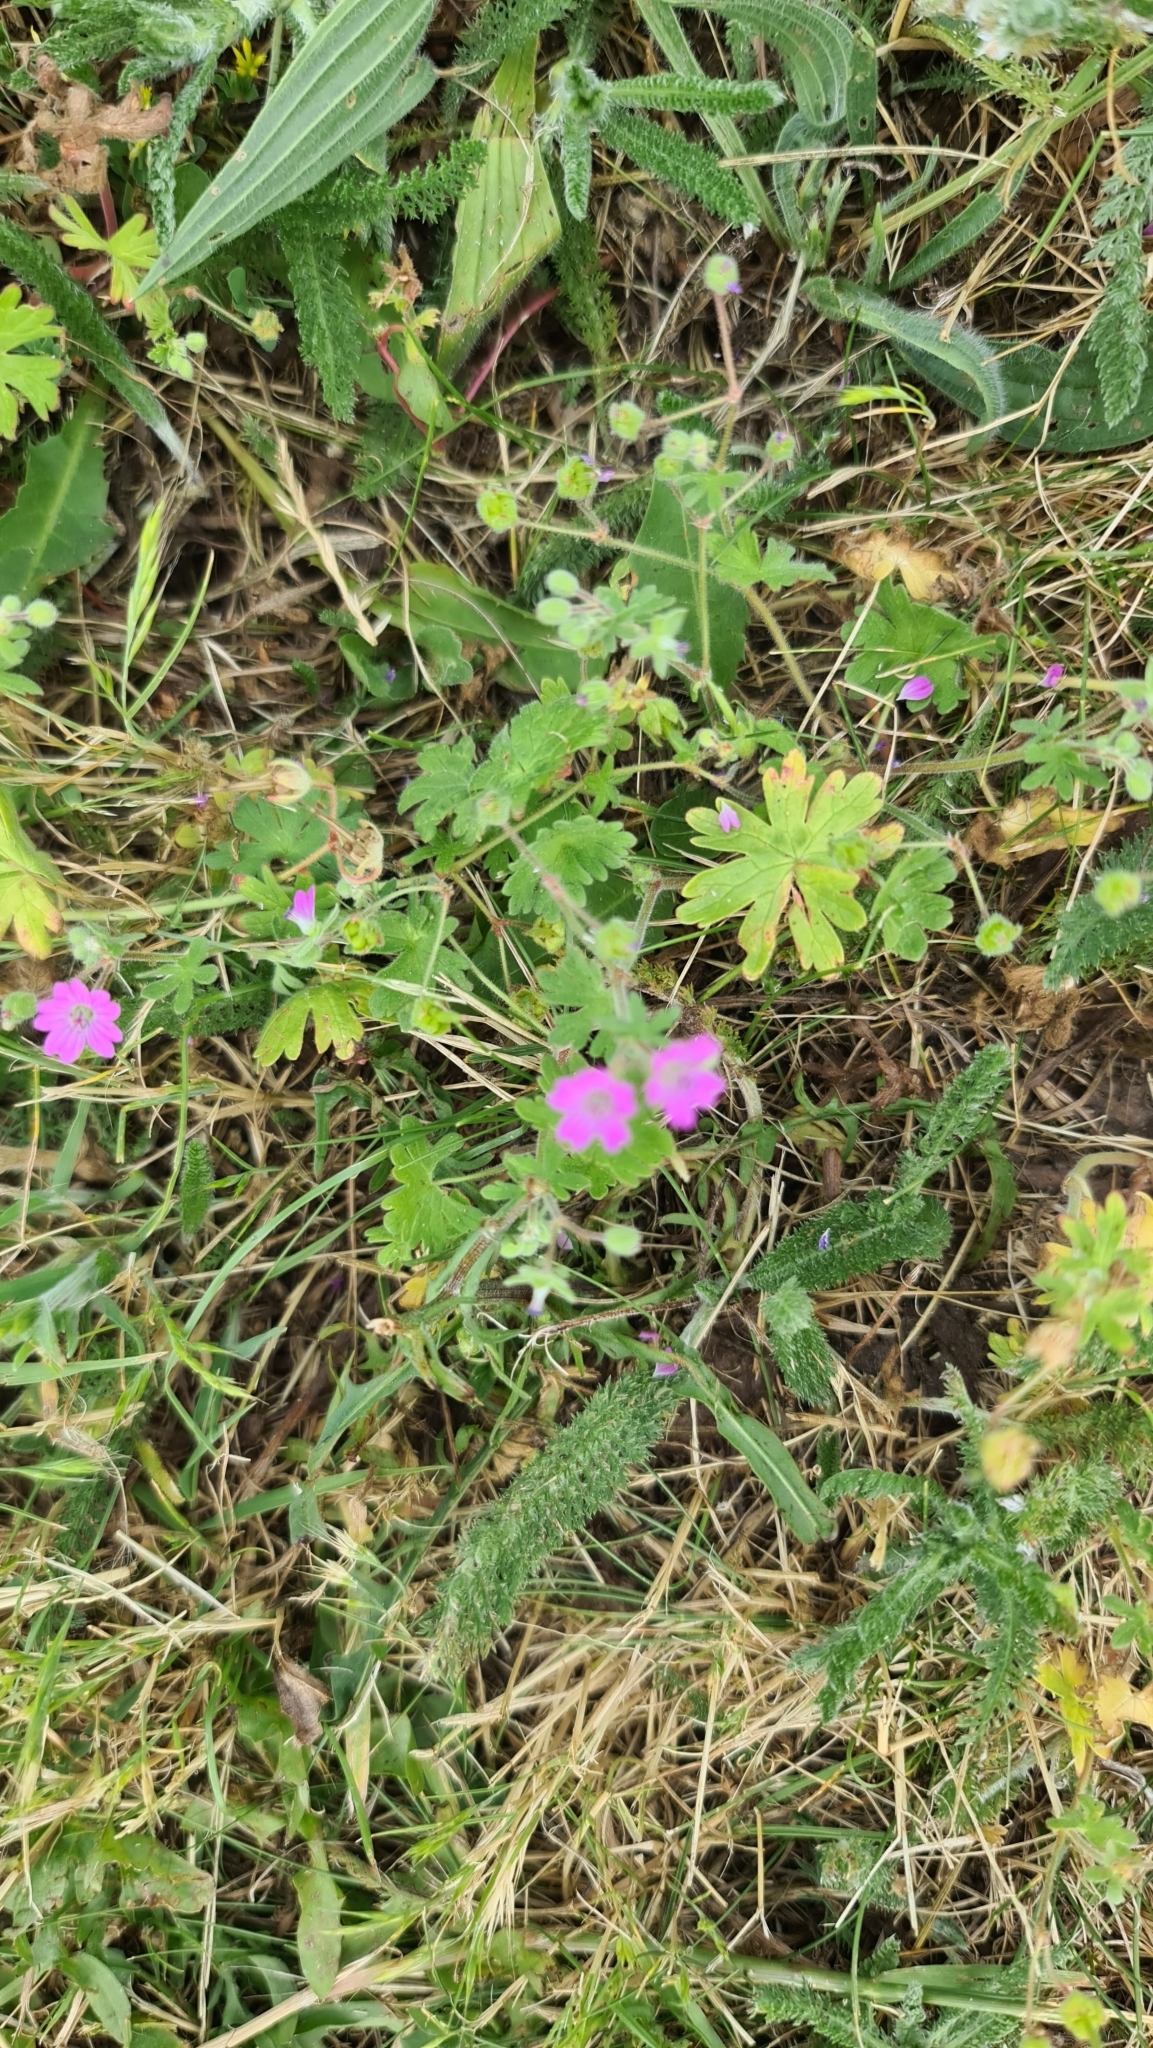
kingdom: Plantae
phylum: Tracheophyta
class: Magnoliopsida
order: Geraniales
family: Geraniaceae
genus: Geranium
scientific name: Geranium molle
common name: Dove's-foot crane's-bill
